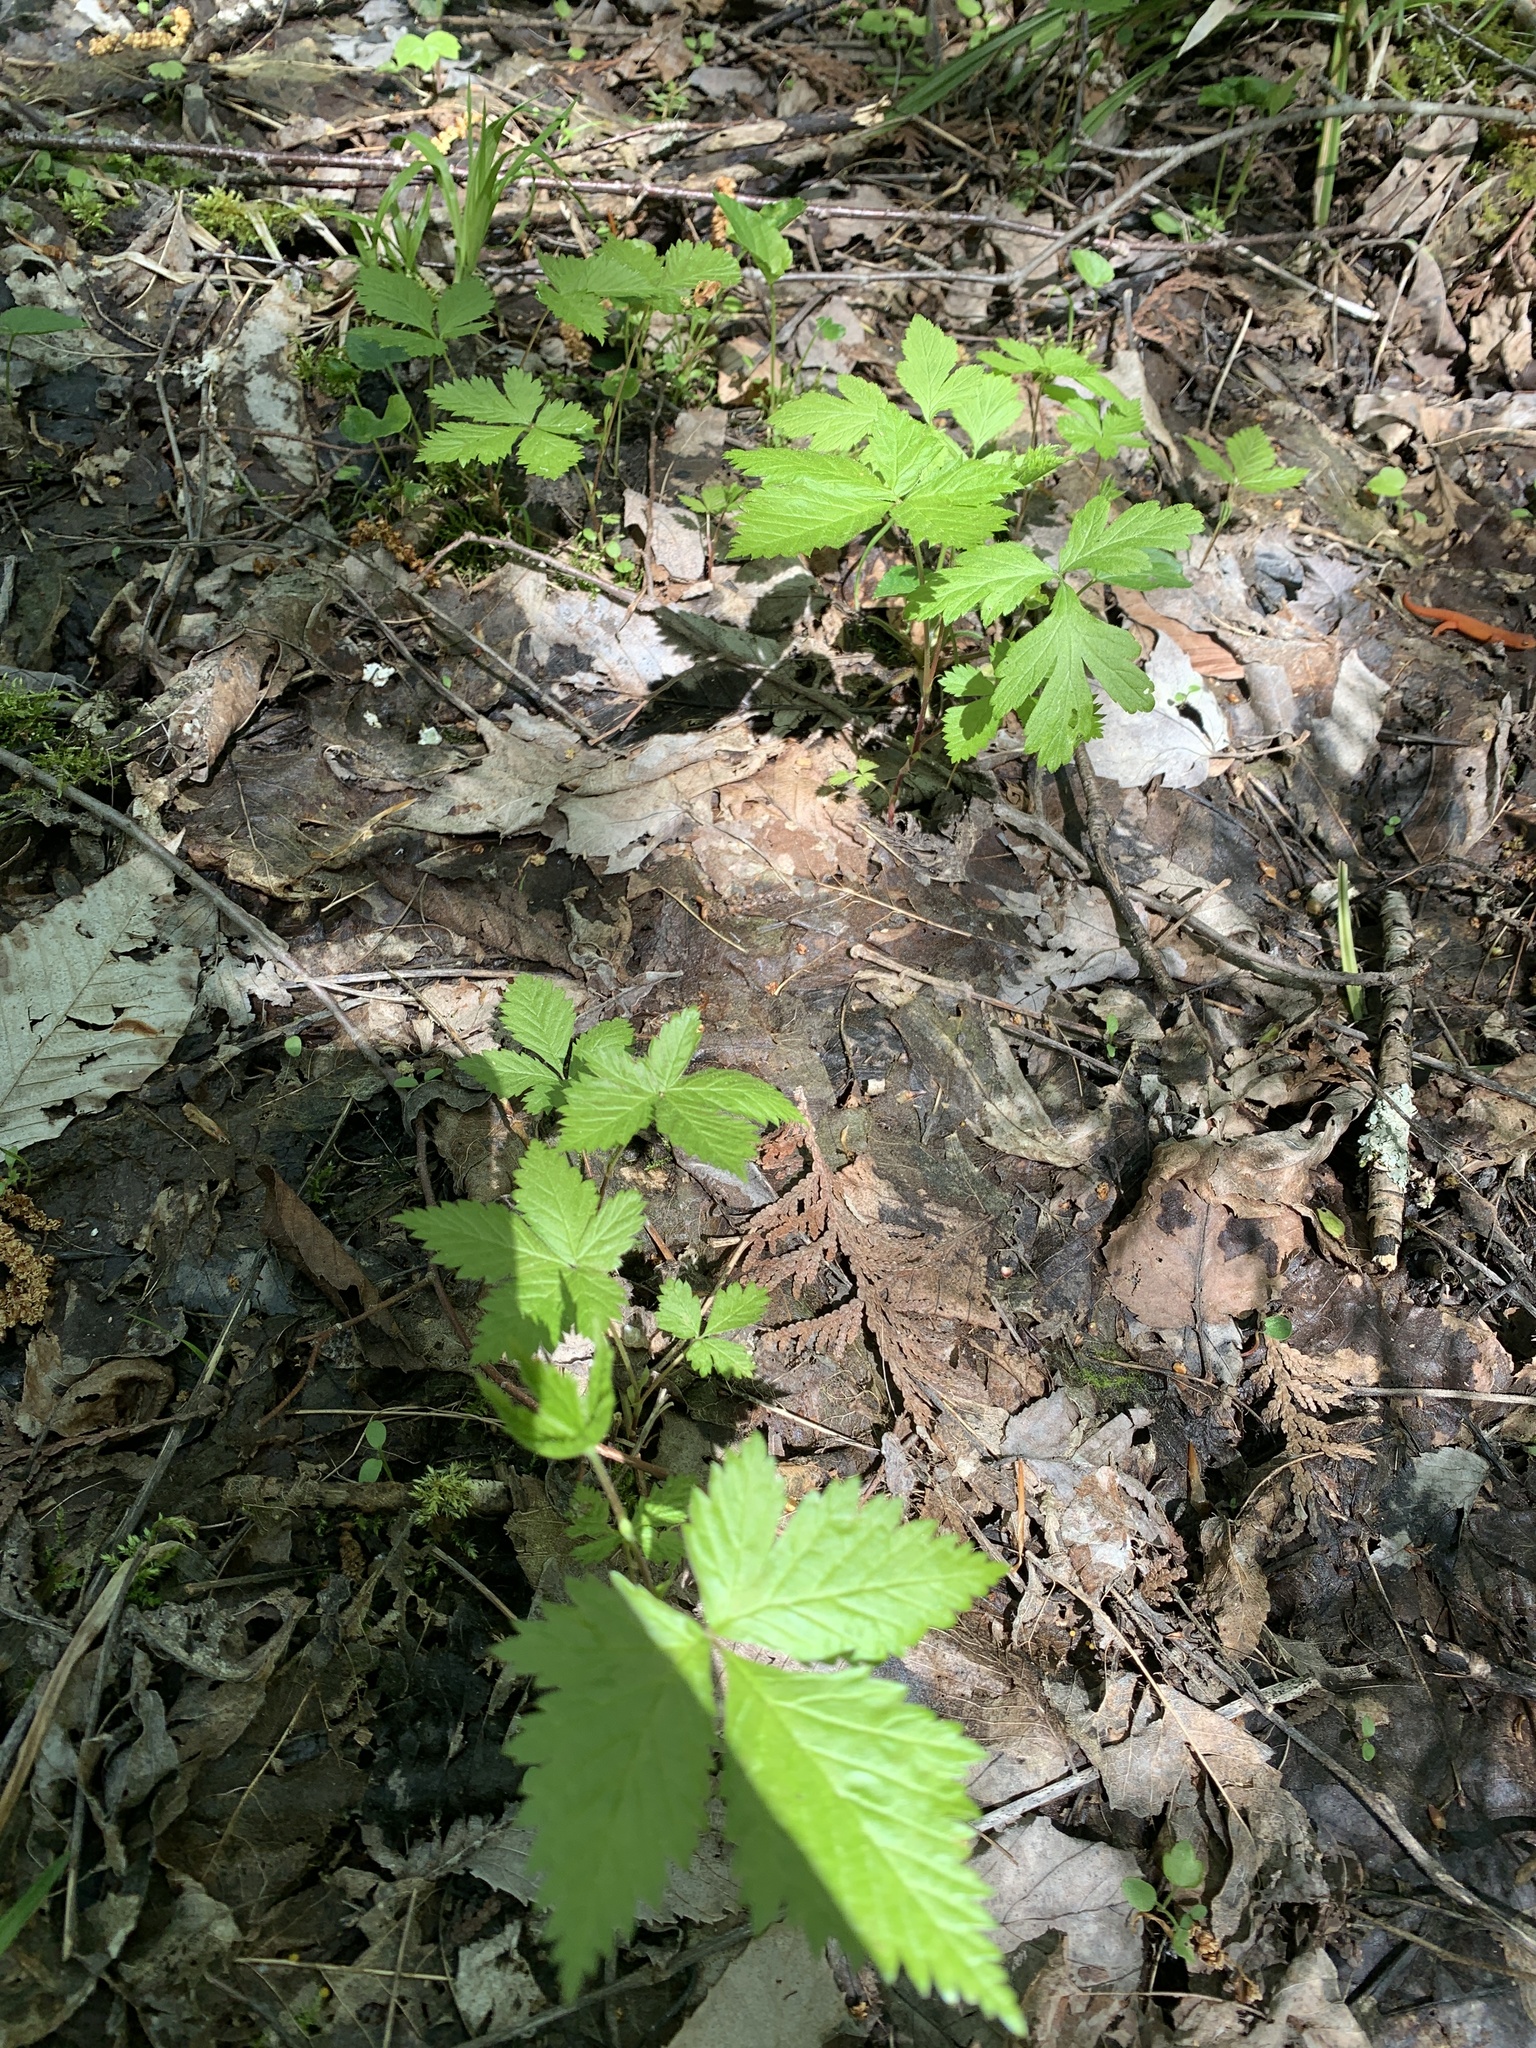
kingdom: Plantae
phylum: Tracheophyta
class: Magnoliopsida
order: Rosales
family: Rosaceae
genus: Rubus
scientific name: Rubus pubescens
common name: Dwarf raspberry
